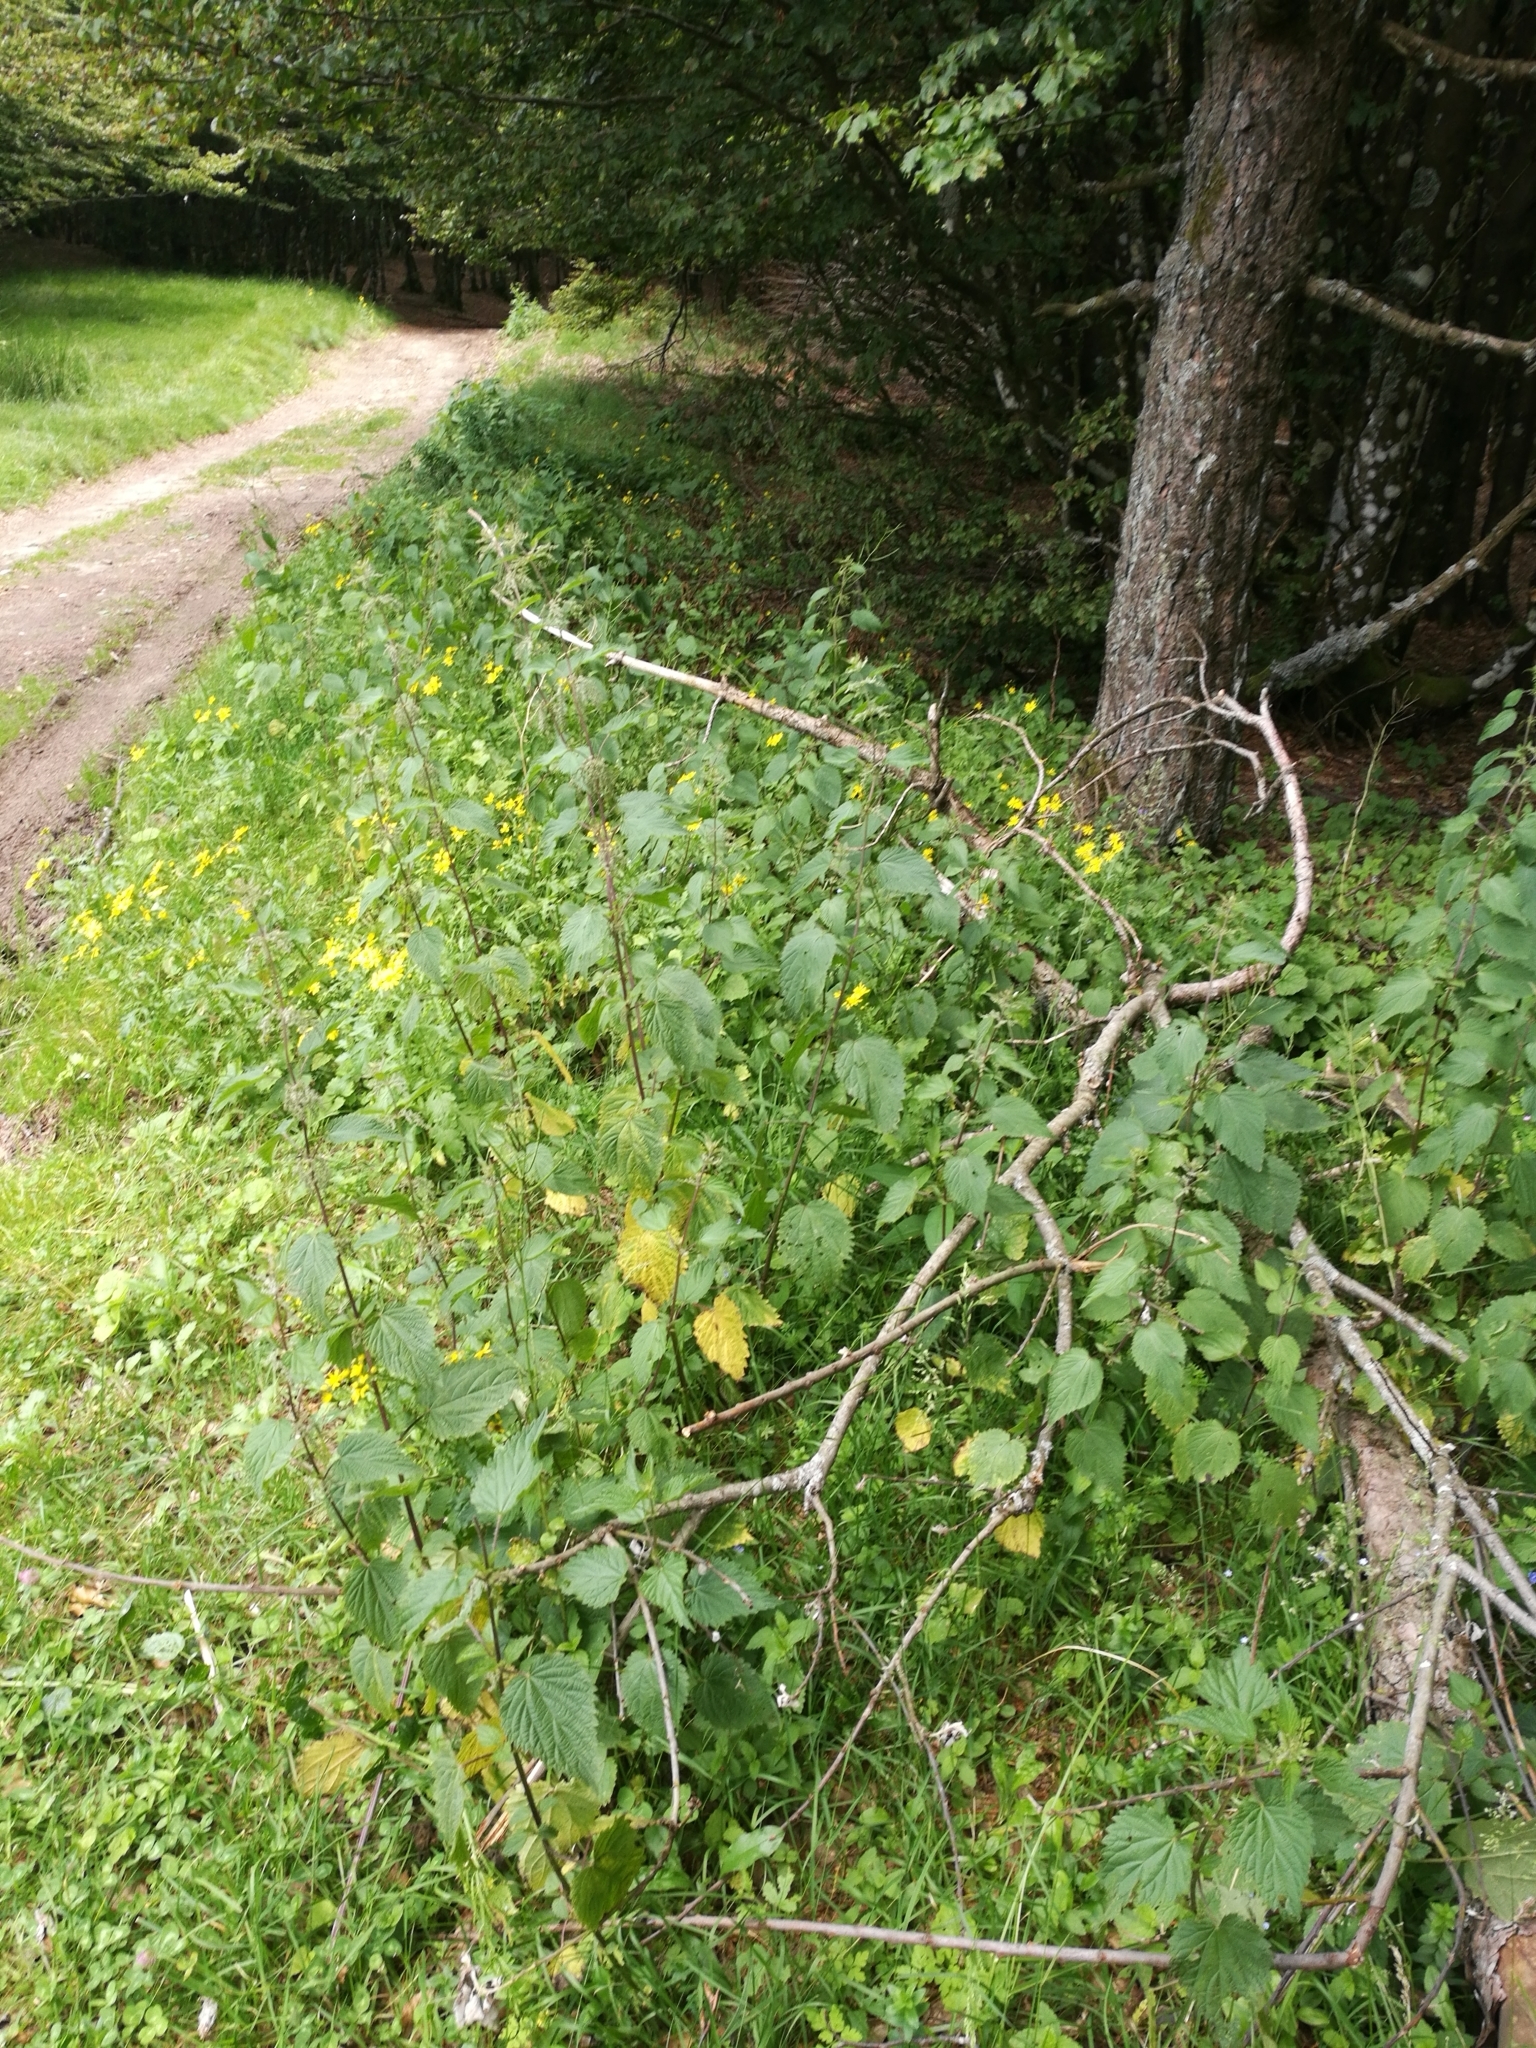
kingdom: Plantae
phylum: Tracheophyta
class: Magnoliopsida
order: Rosales
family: Urticaceae
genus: Urtica
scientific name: Urtica dioica
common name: Common nettle
